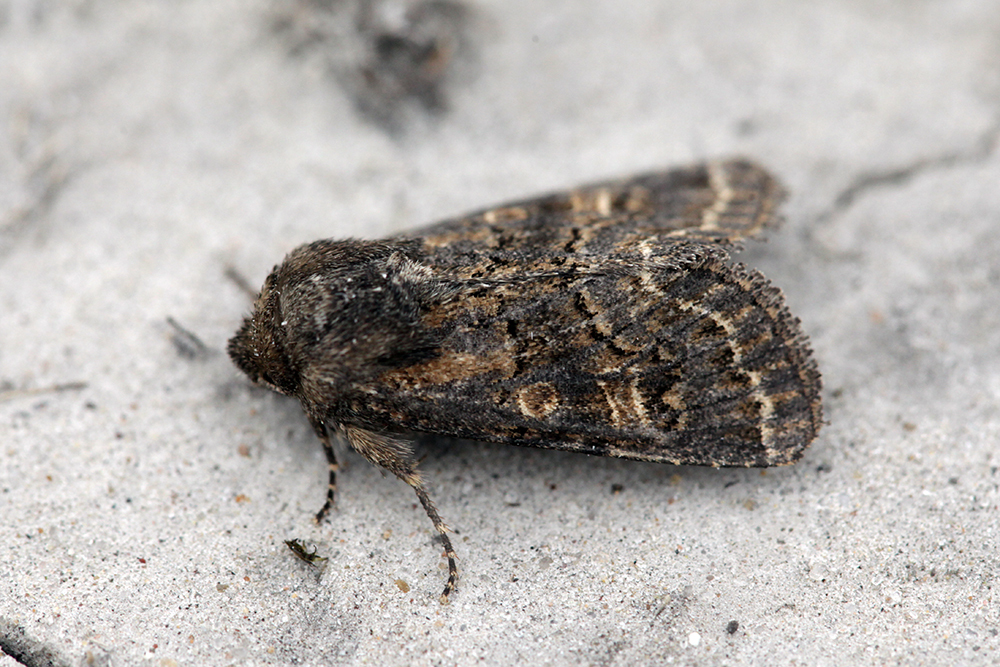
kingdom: Animalia
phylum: Arthropoda
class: Insecta
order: Lepidoptera
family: Noctuidae
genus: Tholera
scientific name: Tholera cespitis
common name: Hedge rustic
